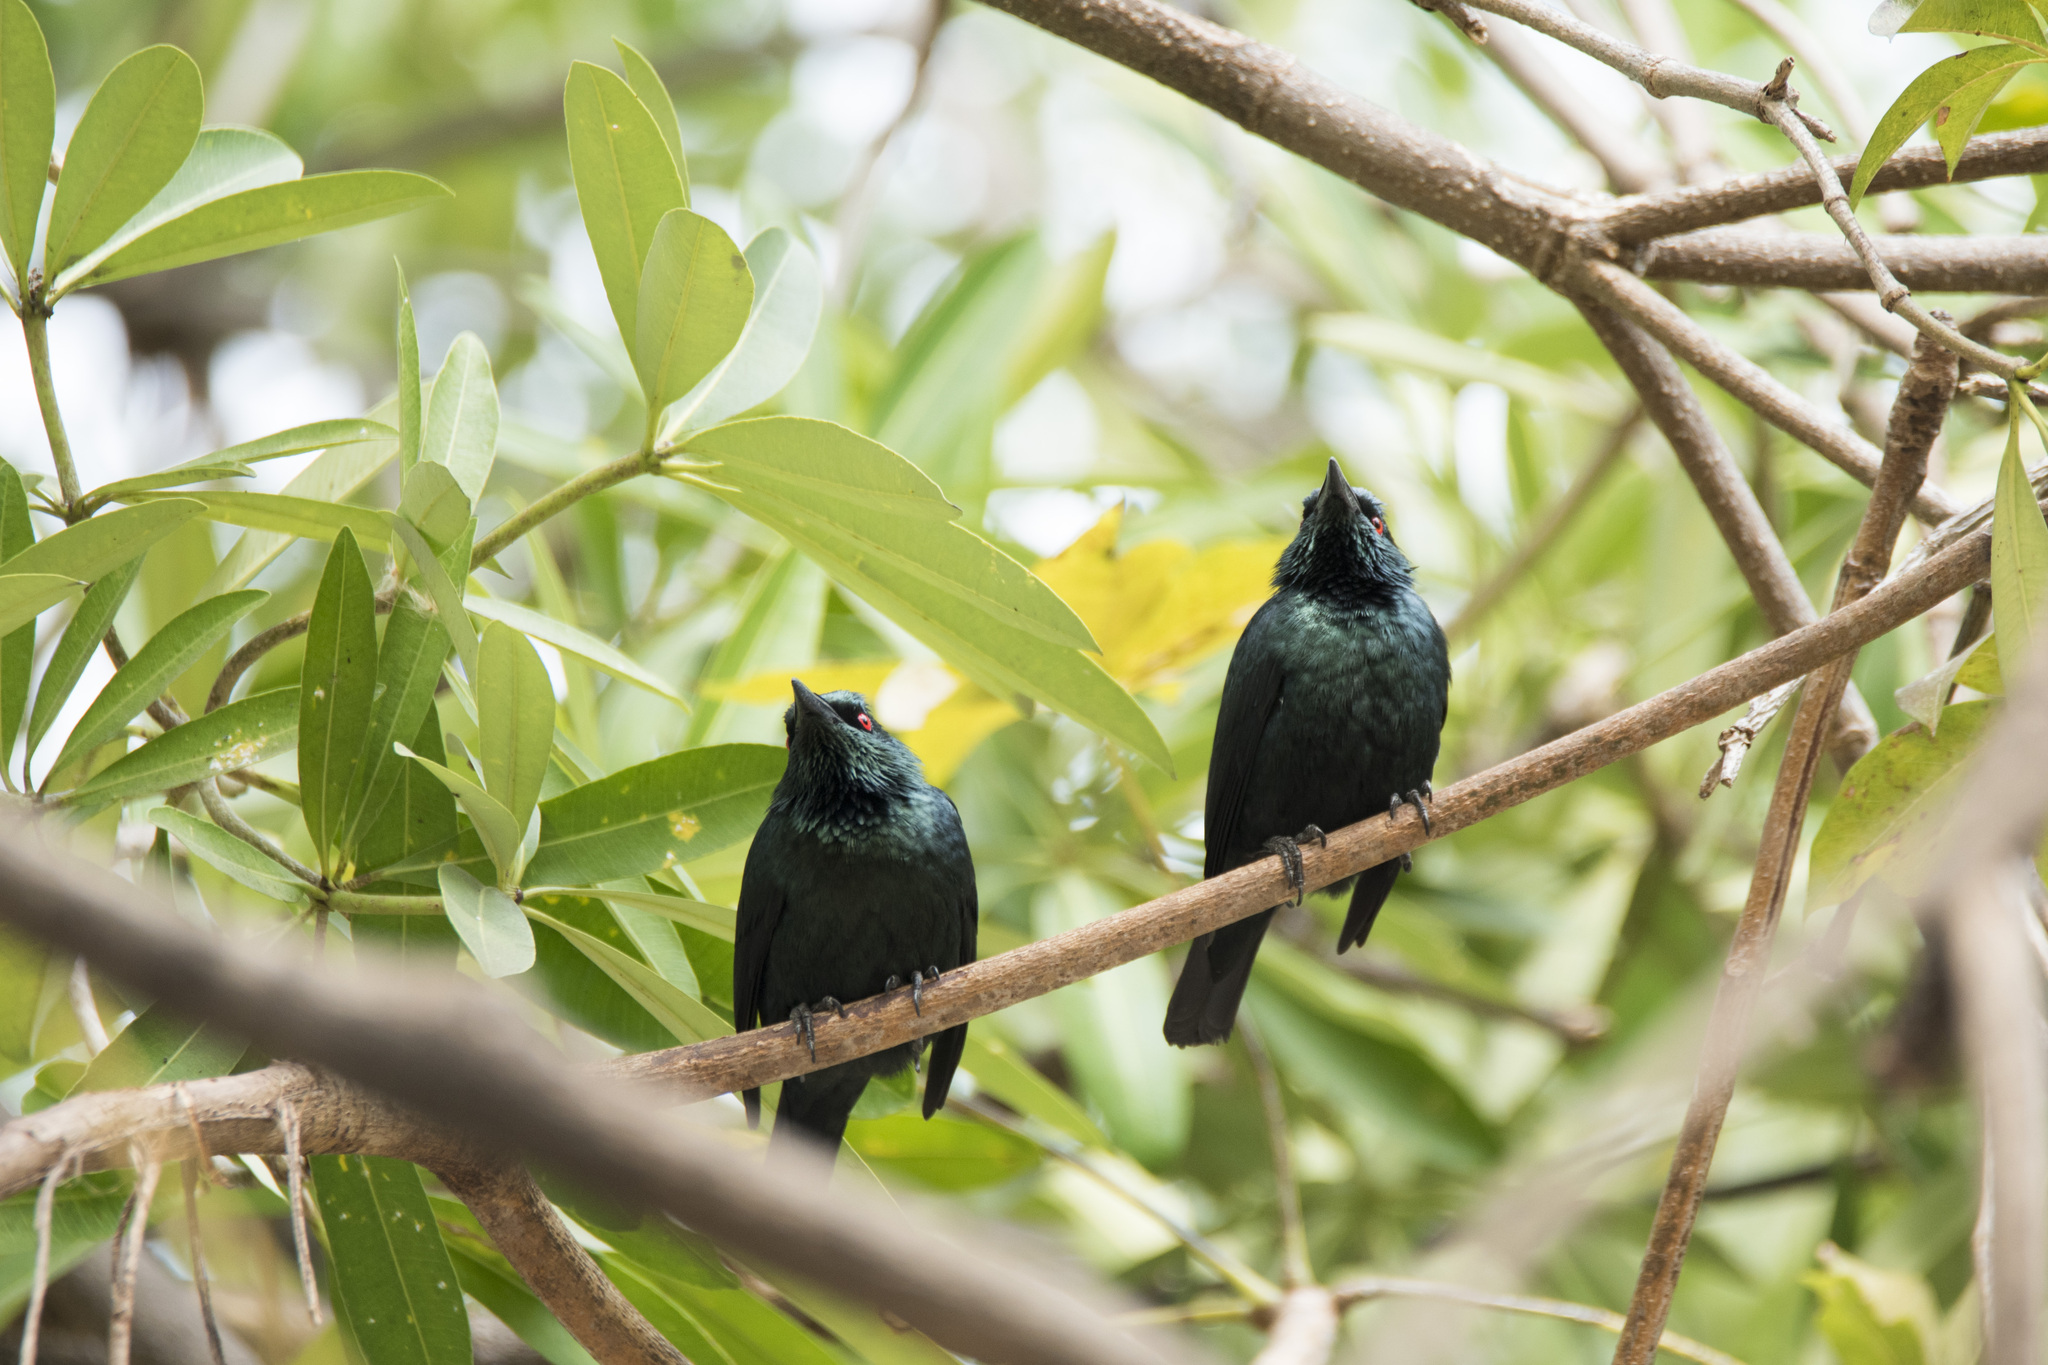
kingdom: Animalia
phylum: Chordata
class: Aves
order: Passeriformes
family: Sturnidae
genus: Aplonis
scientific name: Aplonis panayensis
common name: Asian glossy starling
